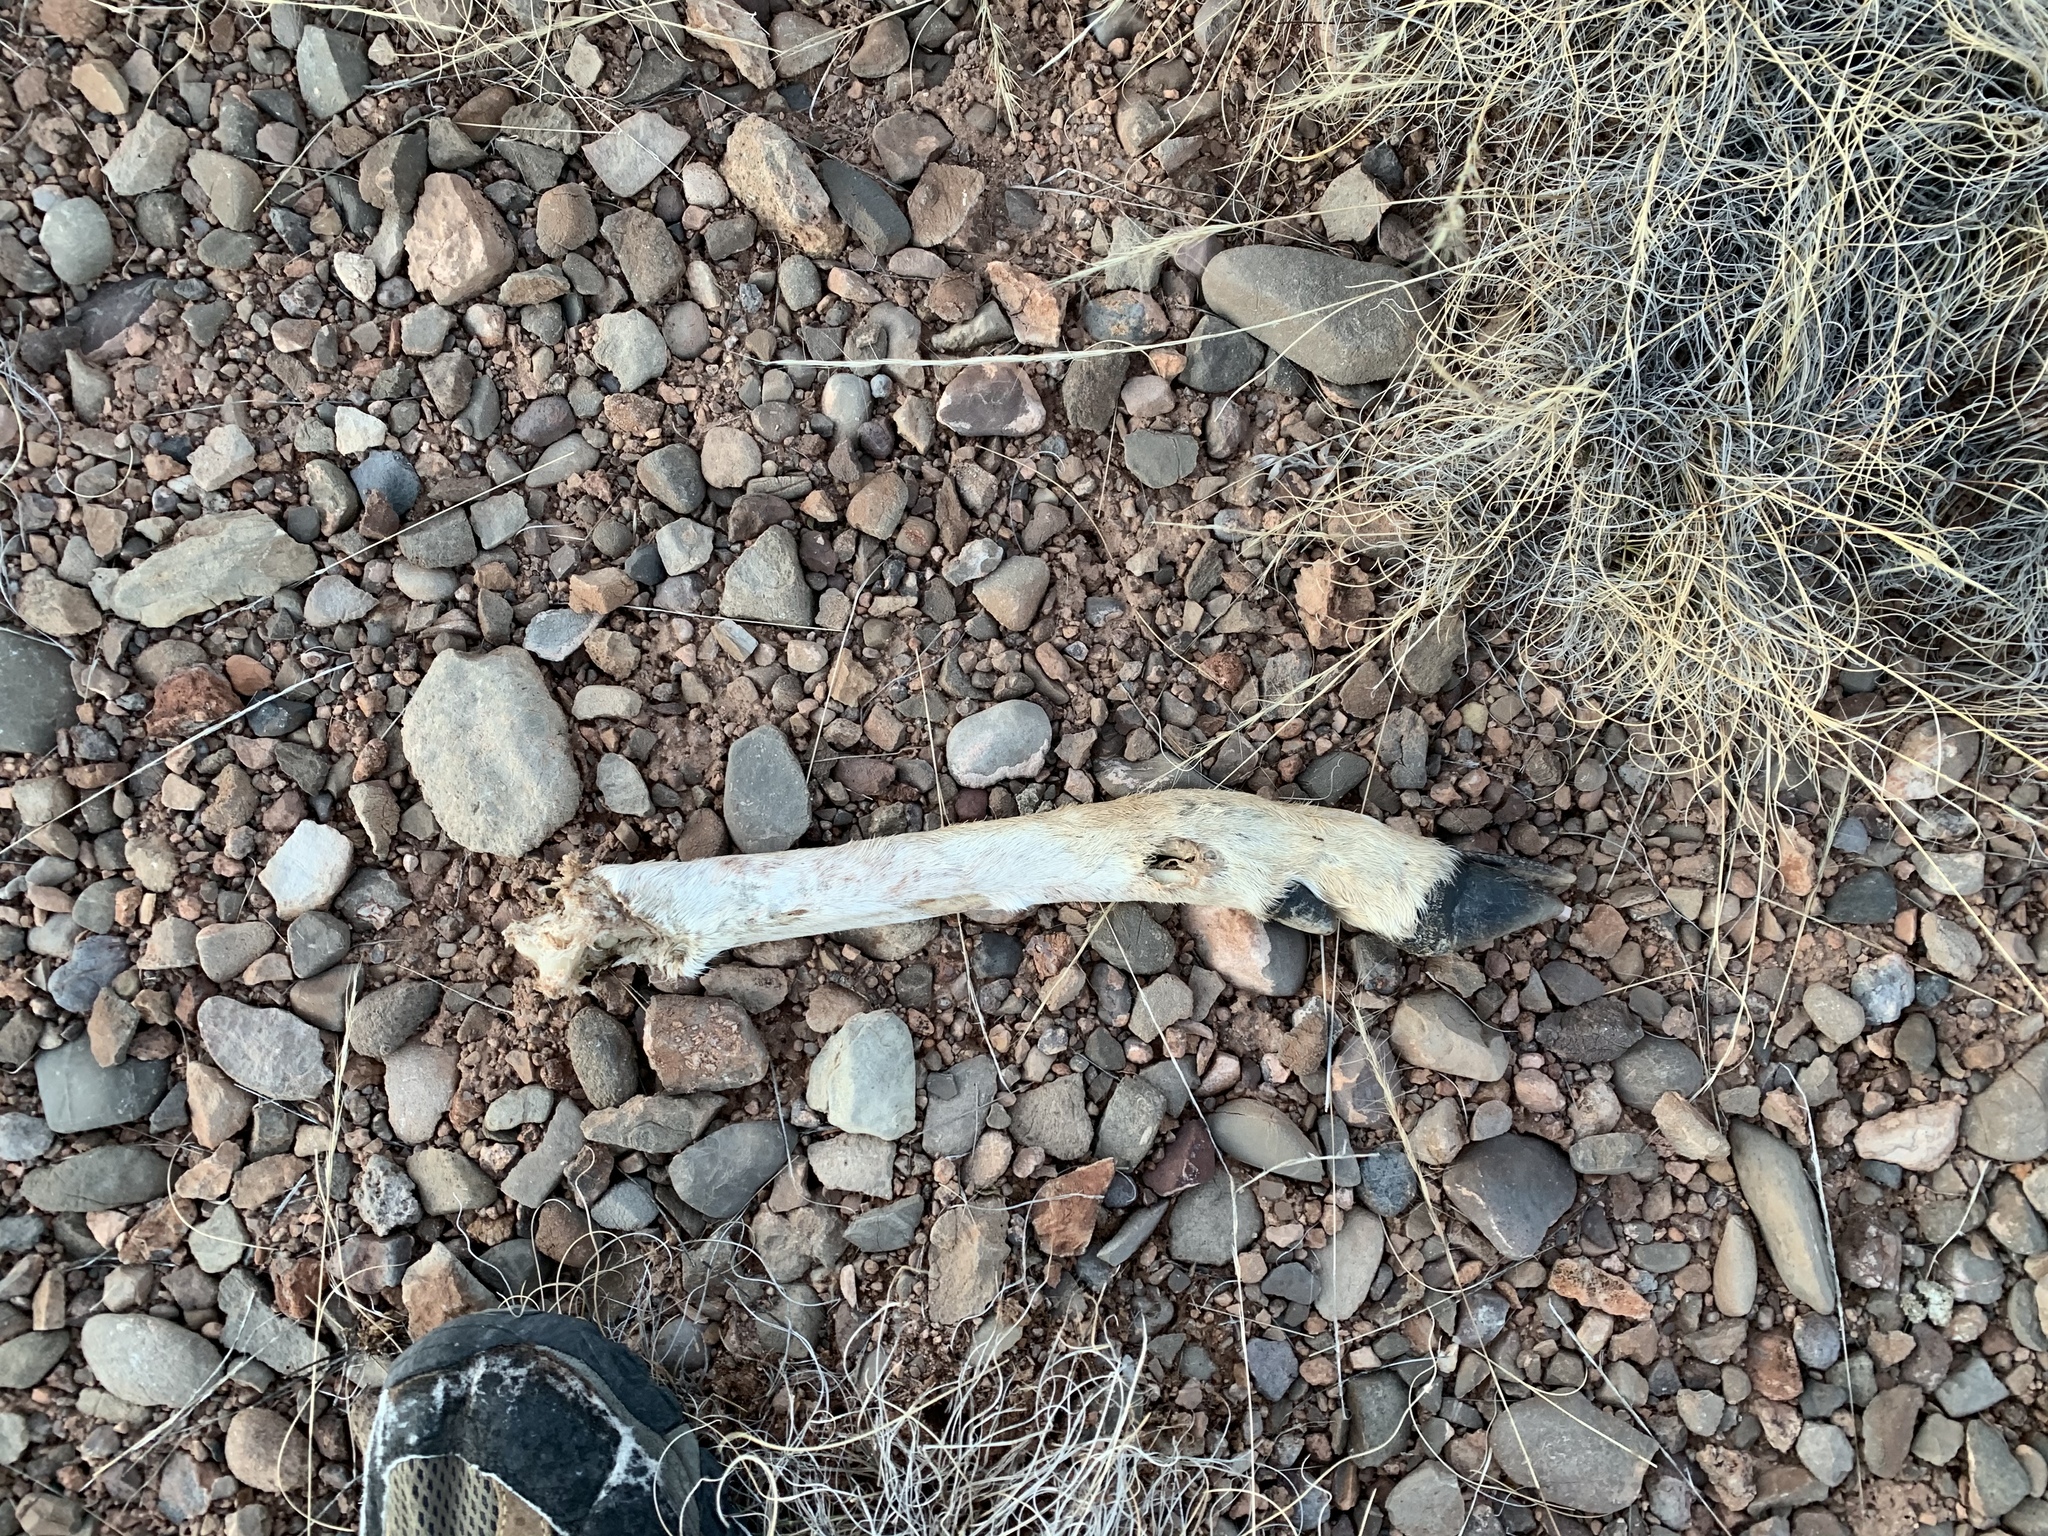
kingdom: Animalia
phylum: Chordata
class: Mammalia
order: Artiodactyla
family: Cervidae
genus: Odocoileus
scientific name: Odocoileus
